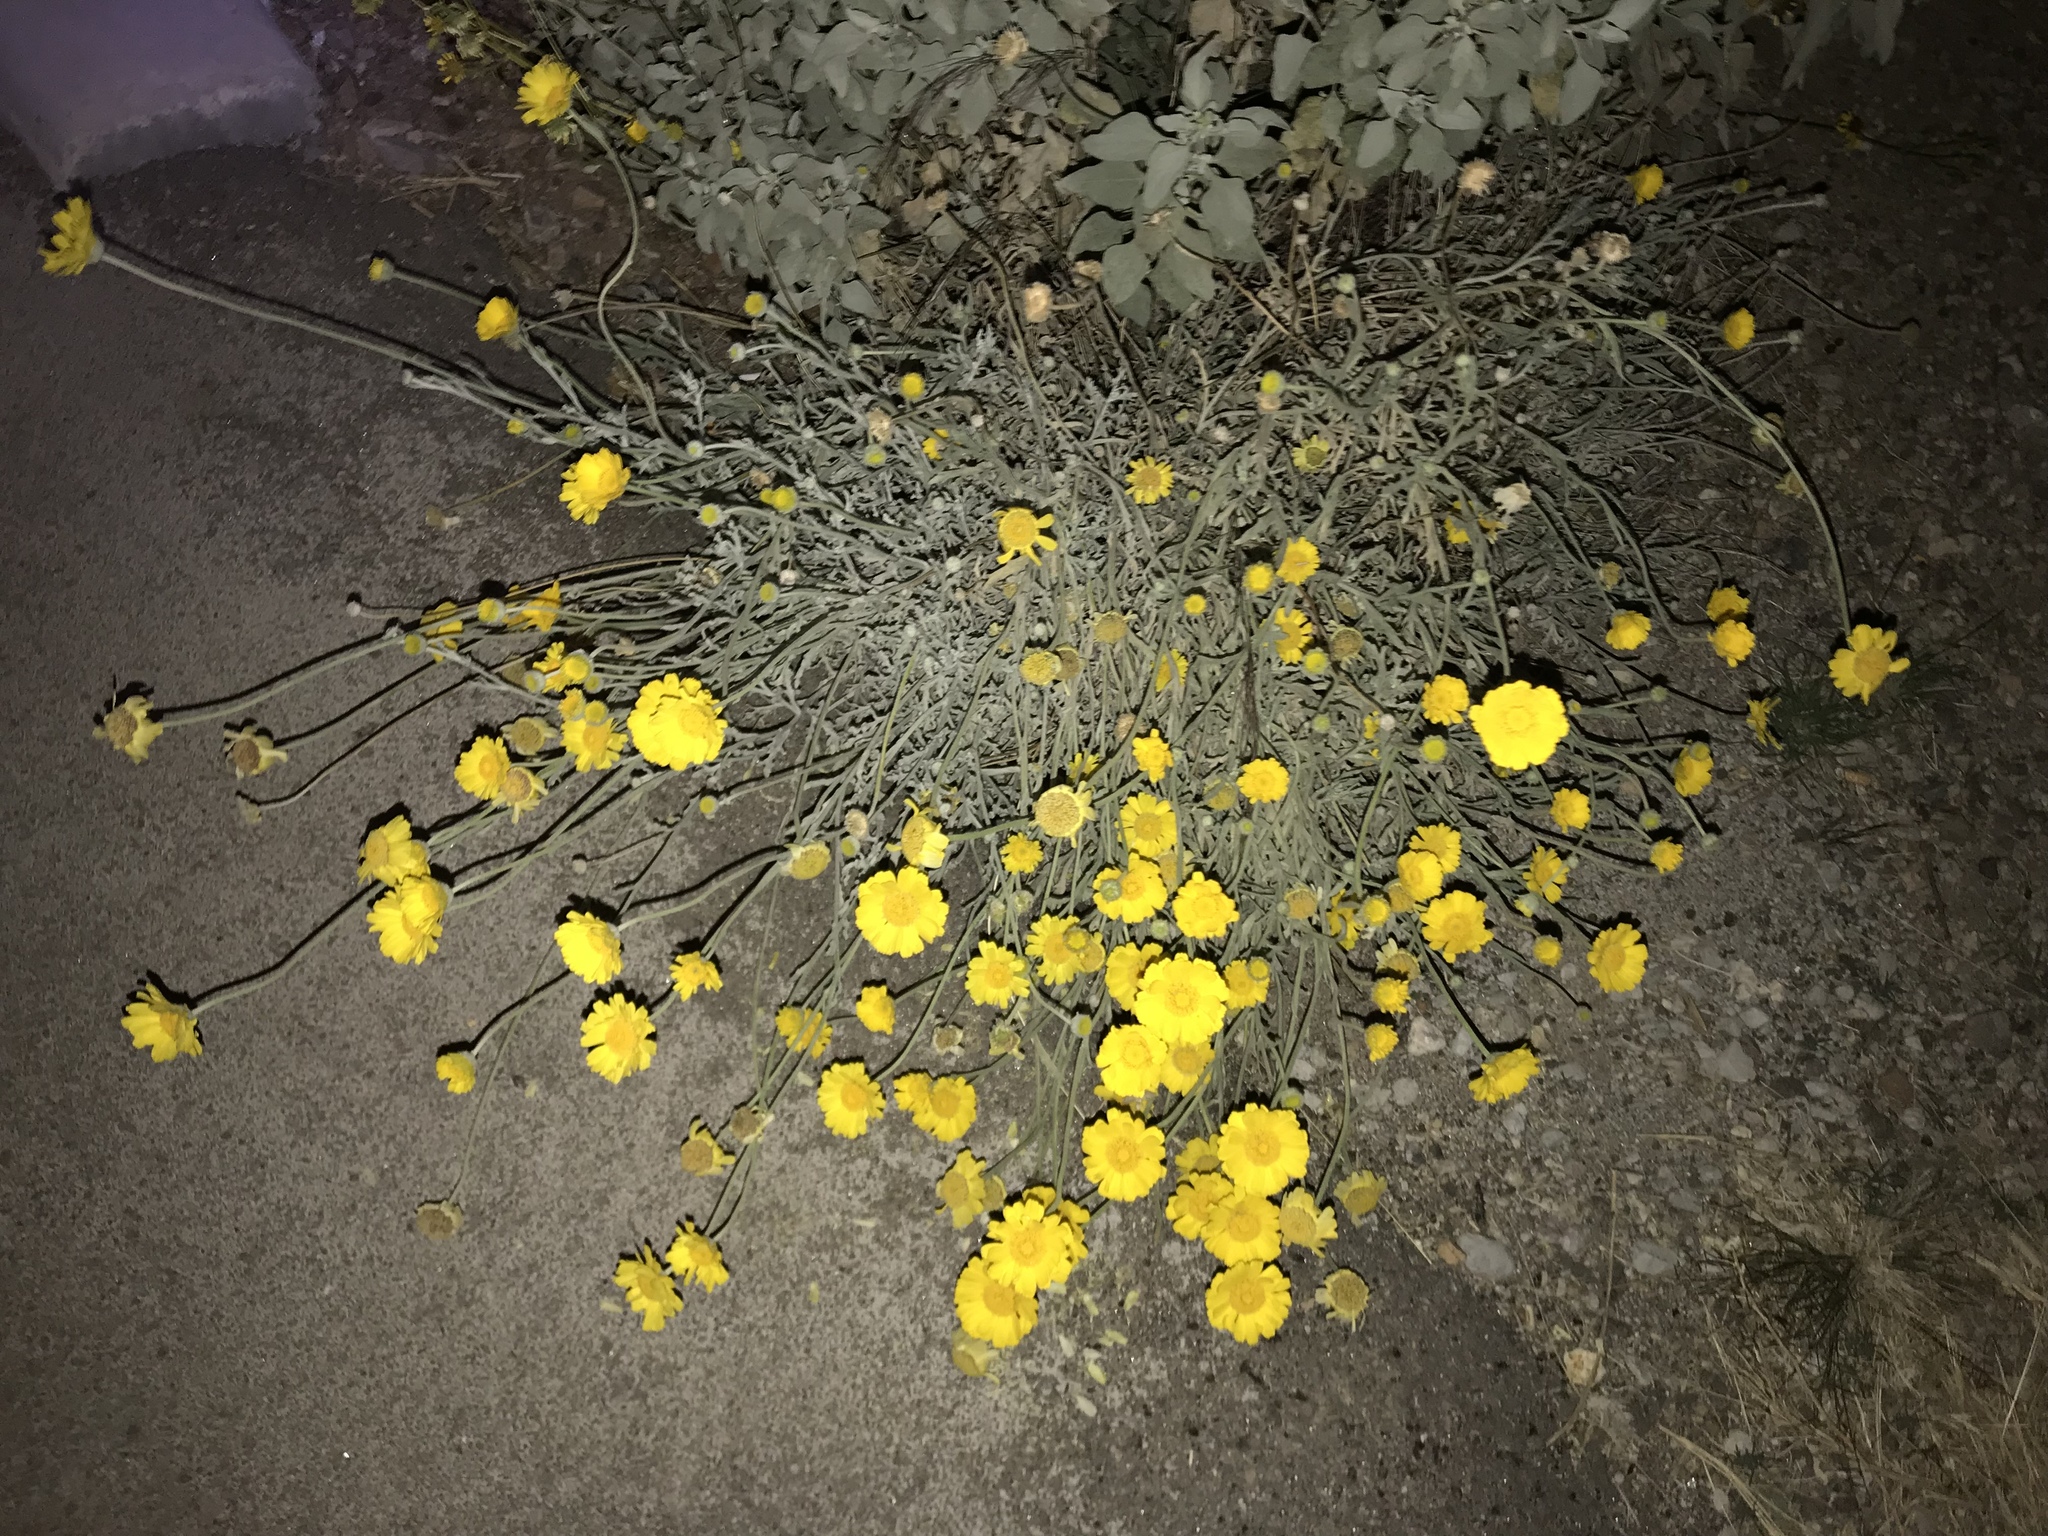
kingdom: Plantae
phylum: Tracheophyta
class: Magnoliopsida
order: Asterales
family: Asteraceae
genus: Baileya
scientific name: Baileya multiradiata
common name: Desert-marigold
